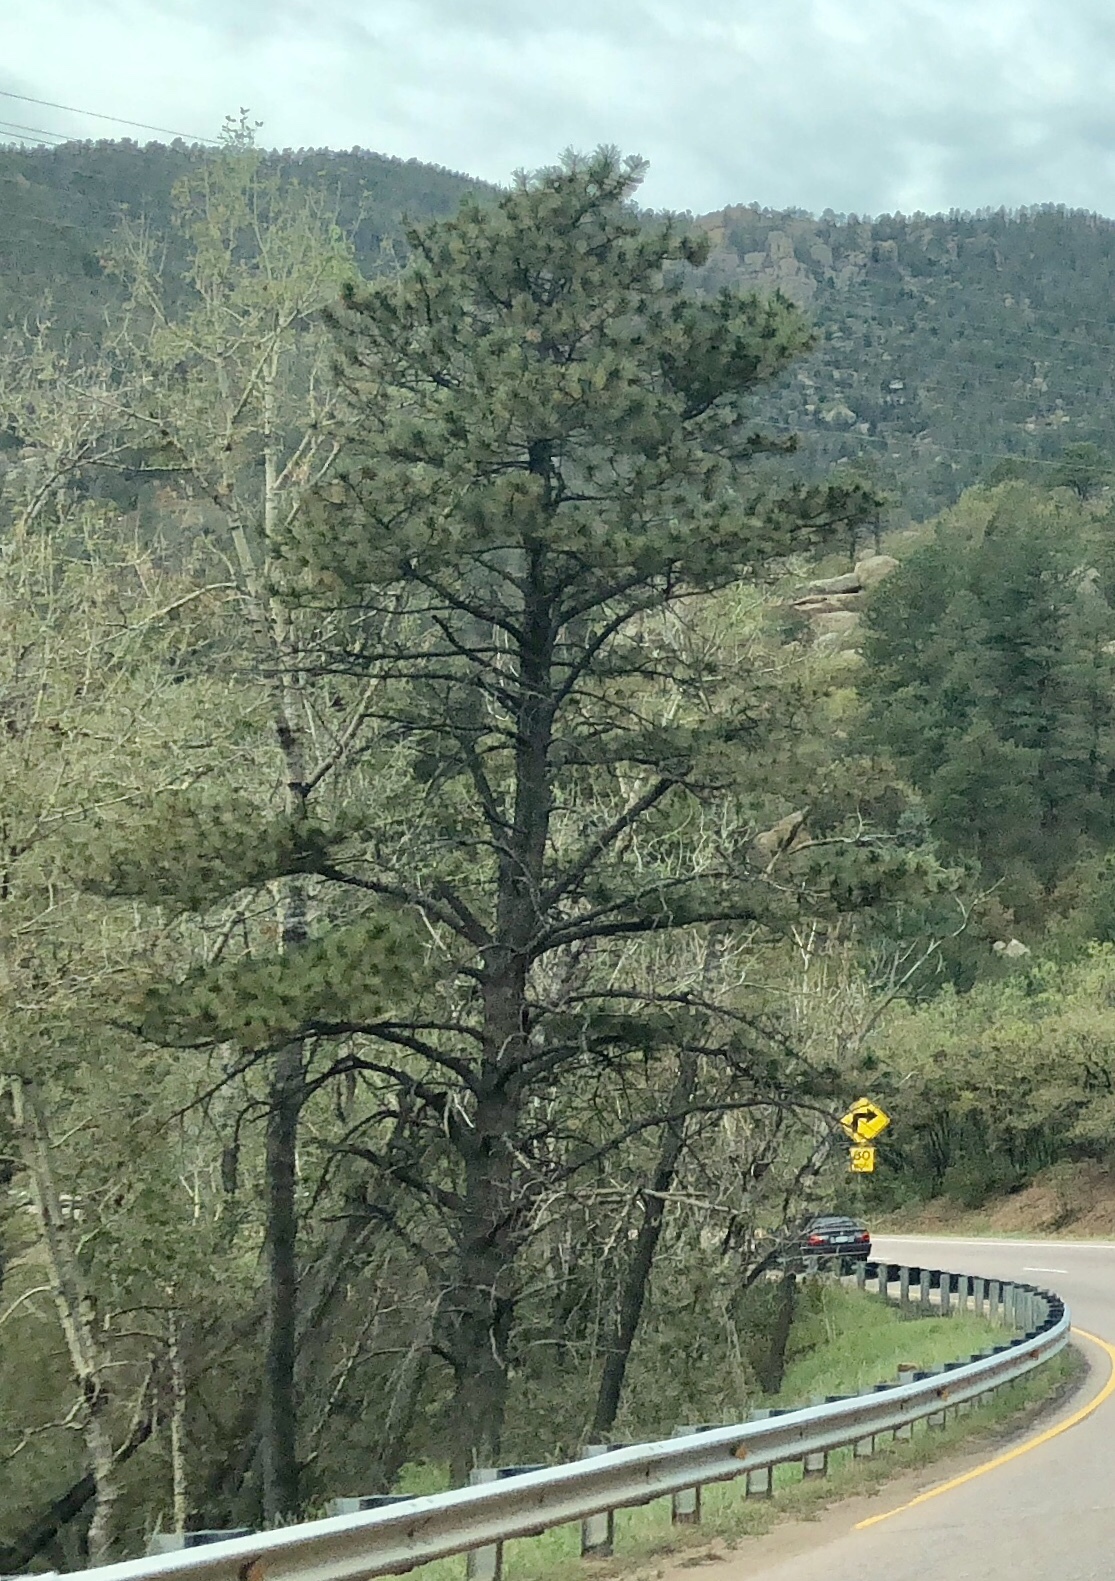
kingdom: Plantae
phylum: Tracheophyta
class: Pinopsida
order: Pinales
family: Pinaceae
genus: Pinus
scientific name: Pinus ponderosa
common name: Western yellow-pine
